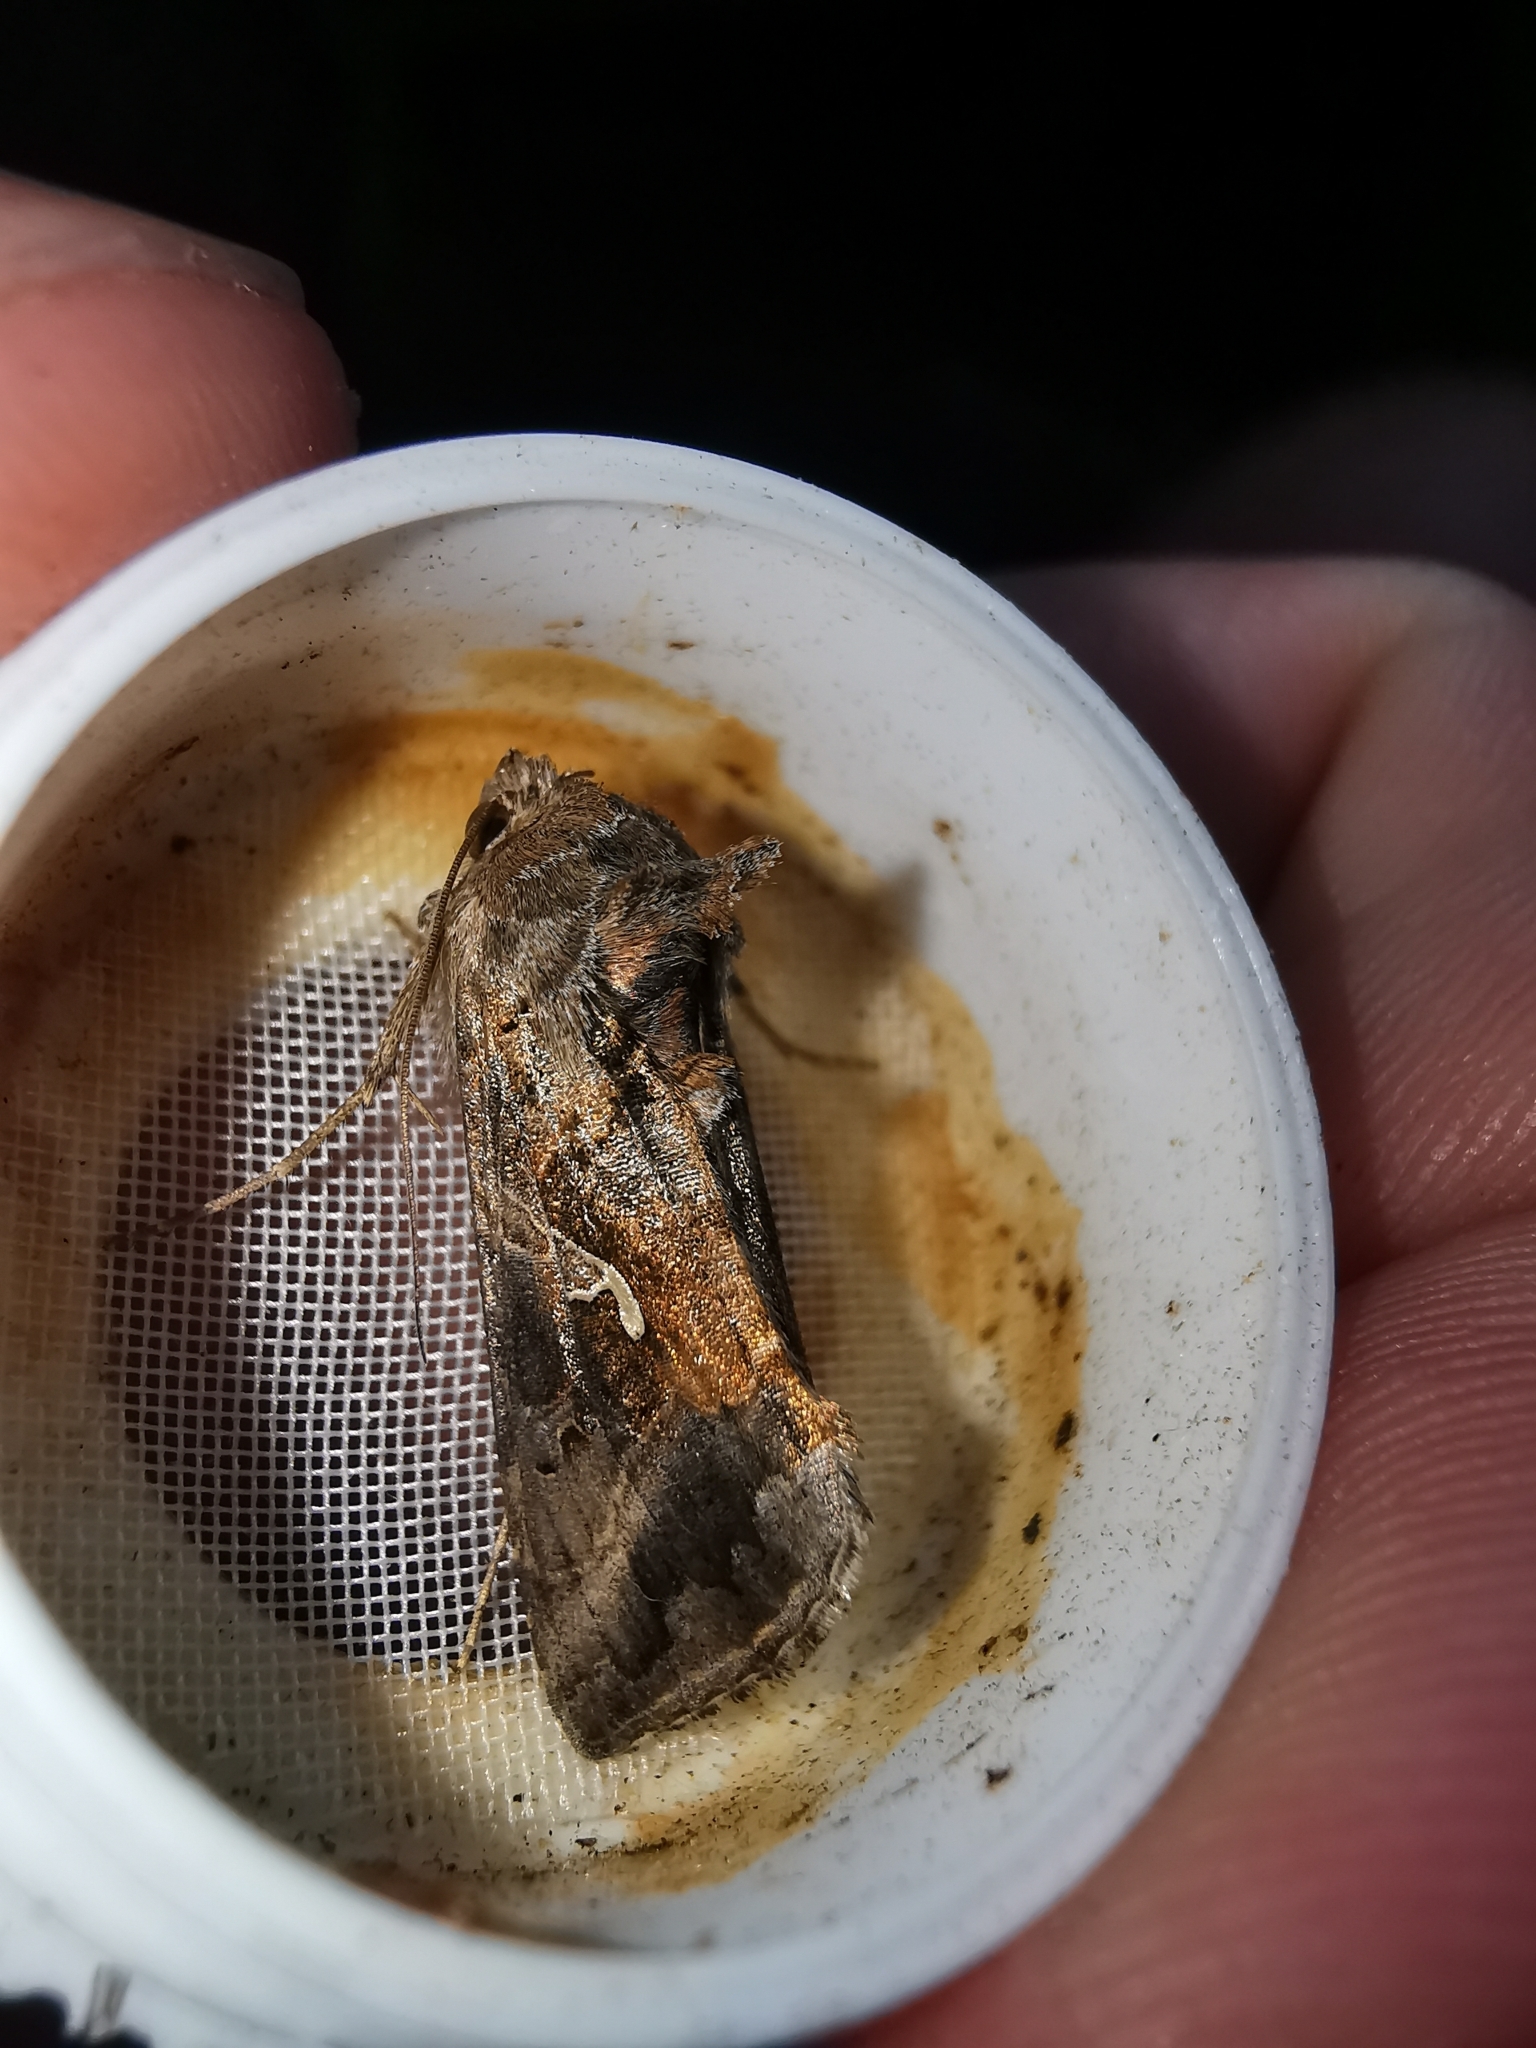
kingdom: Animalia
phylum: Arthropoda
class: Insecta
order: Lepidoptera
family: Noctuidae
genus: Autographa
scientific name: Autographa gamma
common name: Silver y
